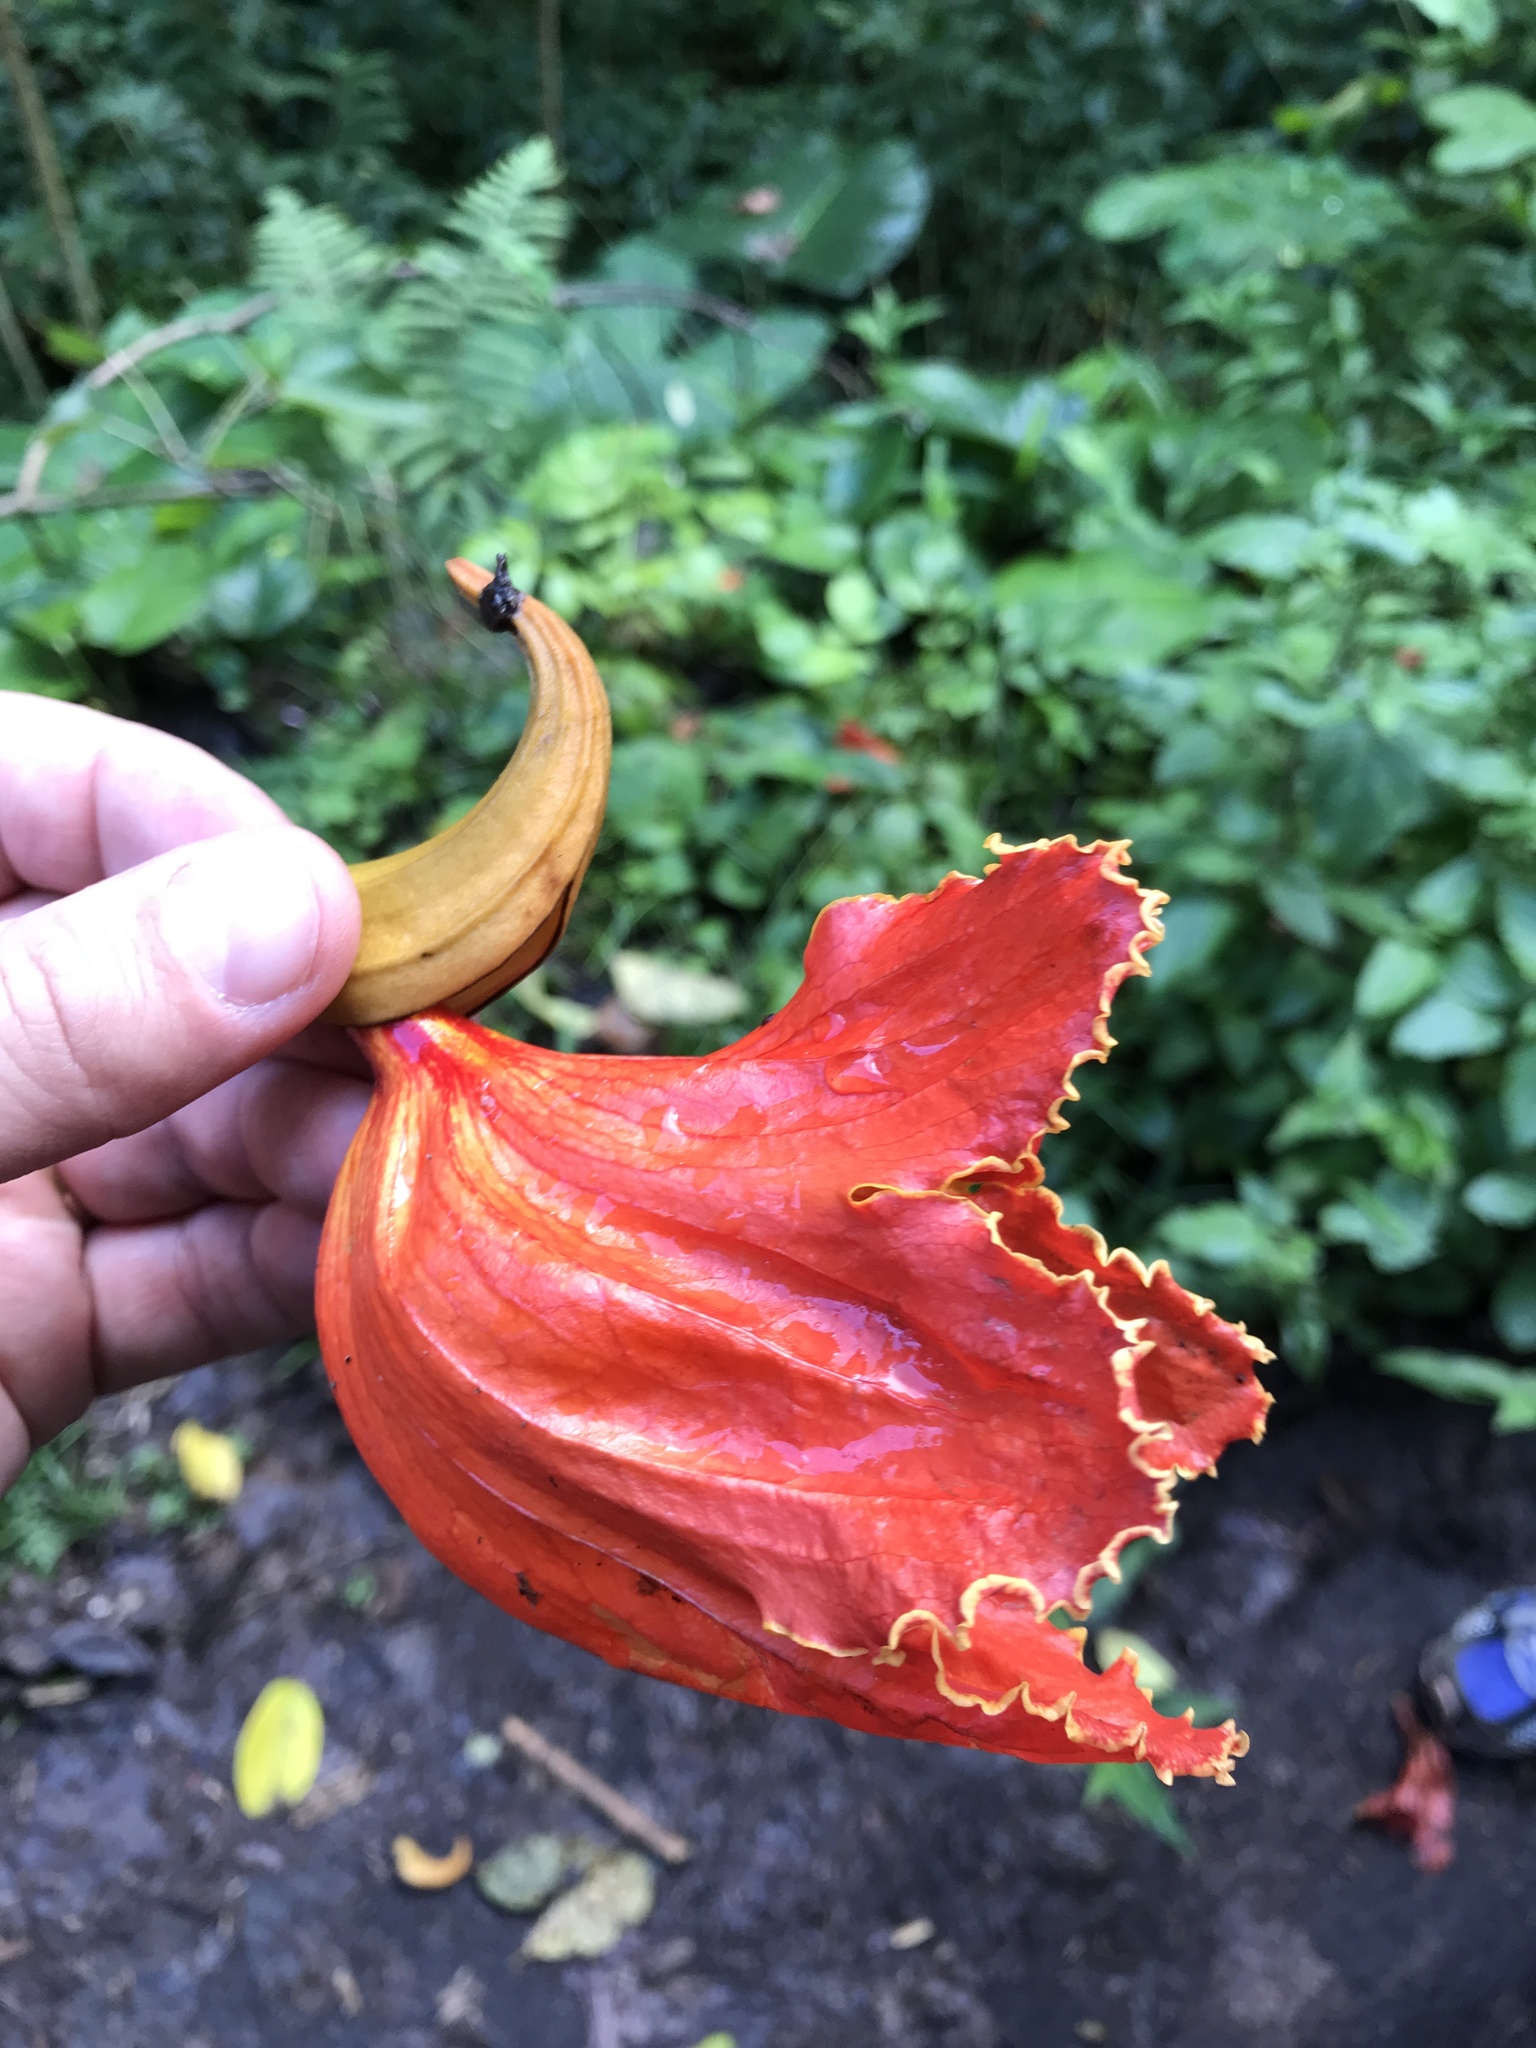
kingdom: Plantae
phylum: Tracheophyta
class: Magnoliopsida
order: Lamiales
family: Bignoniaceae
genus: Spathodea
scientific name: Spathodea campanulata
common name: African tuliptree
